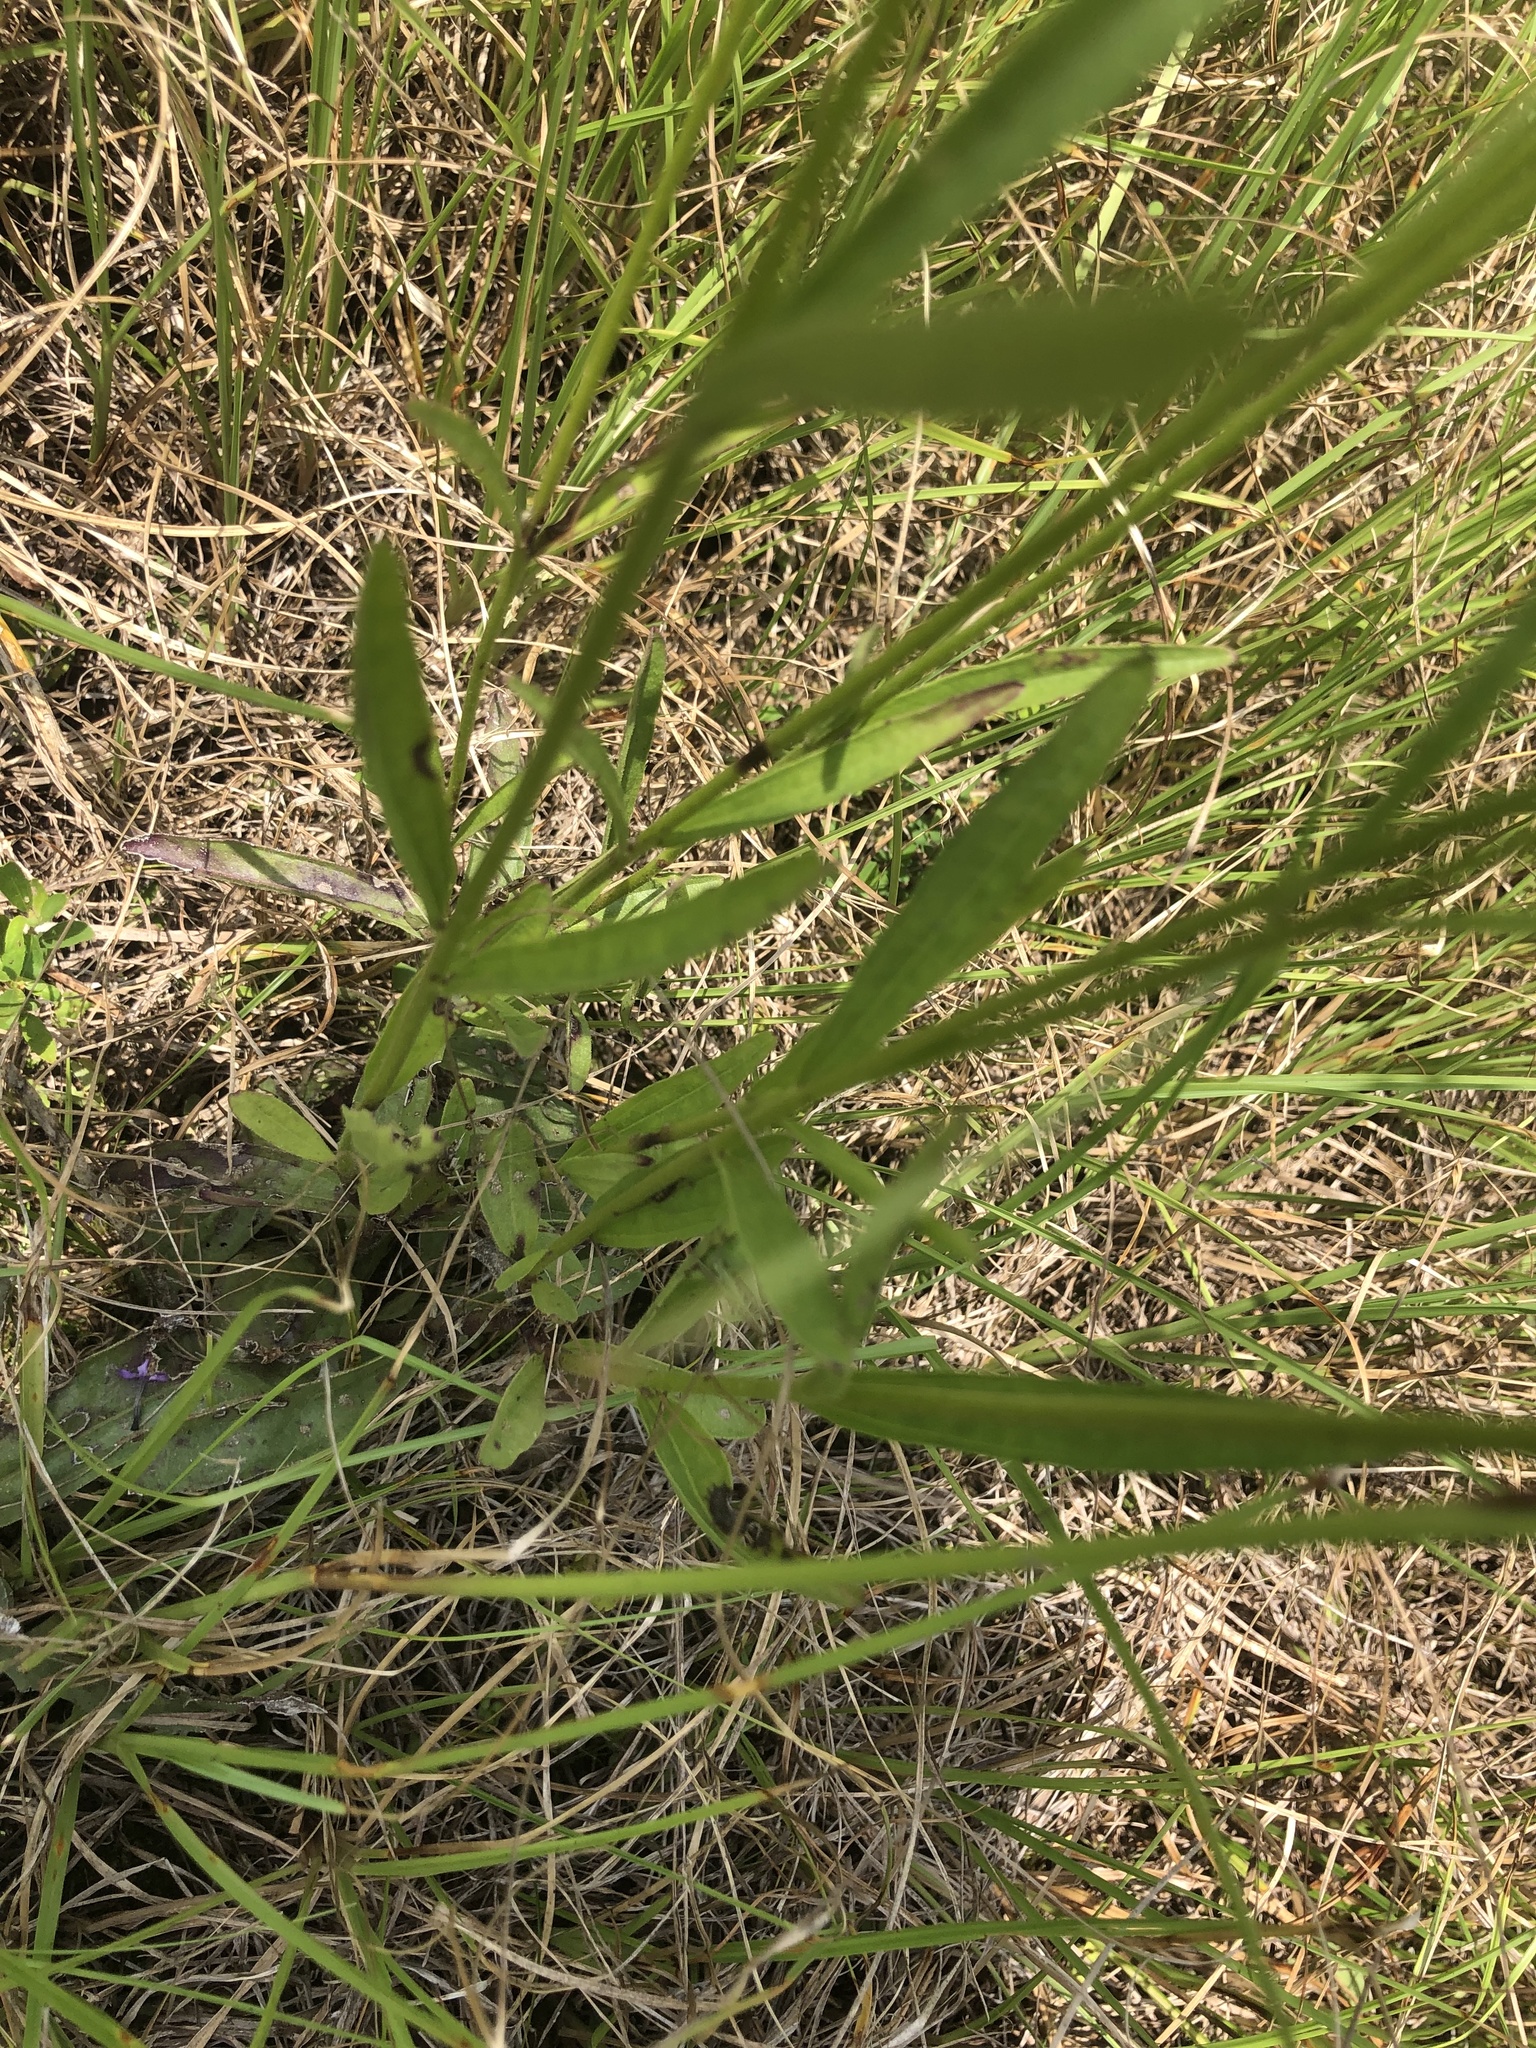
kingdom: Plantae
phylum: Tracheophyta
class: Magnoliopsida
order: Lamiales
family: Orobanchaceae
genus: Buchnera
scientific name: Buchnera floridana
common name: Florida bluehearts
